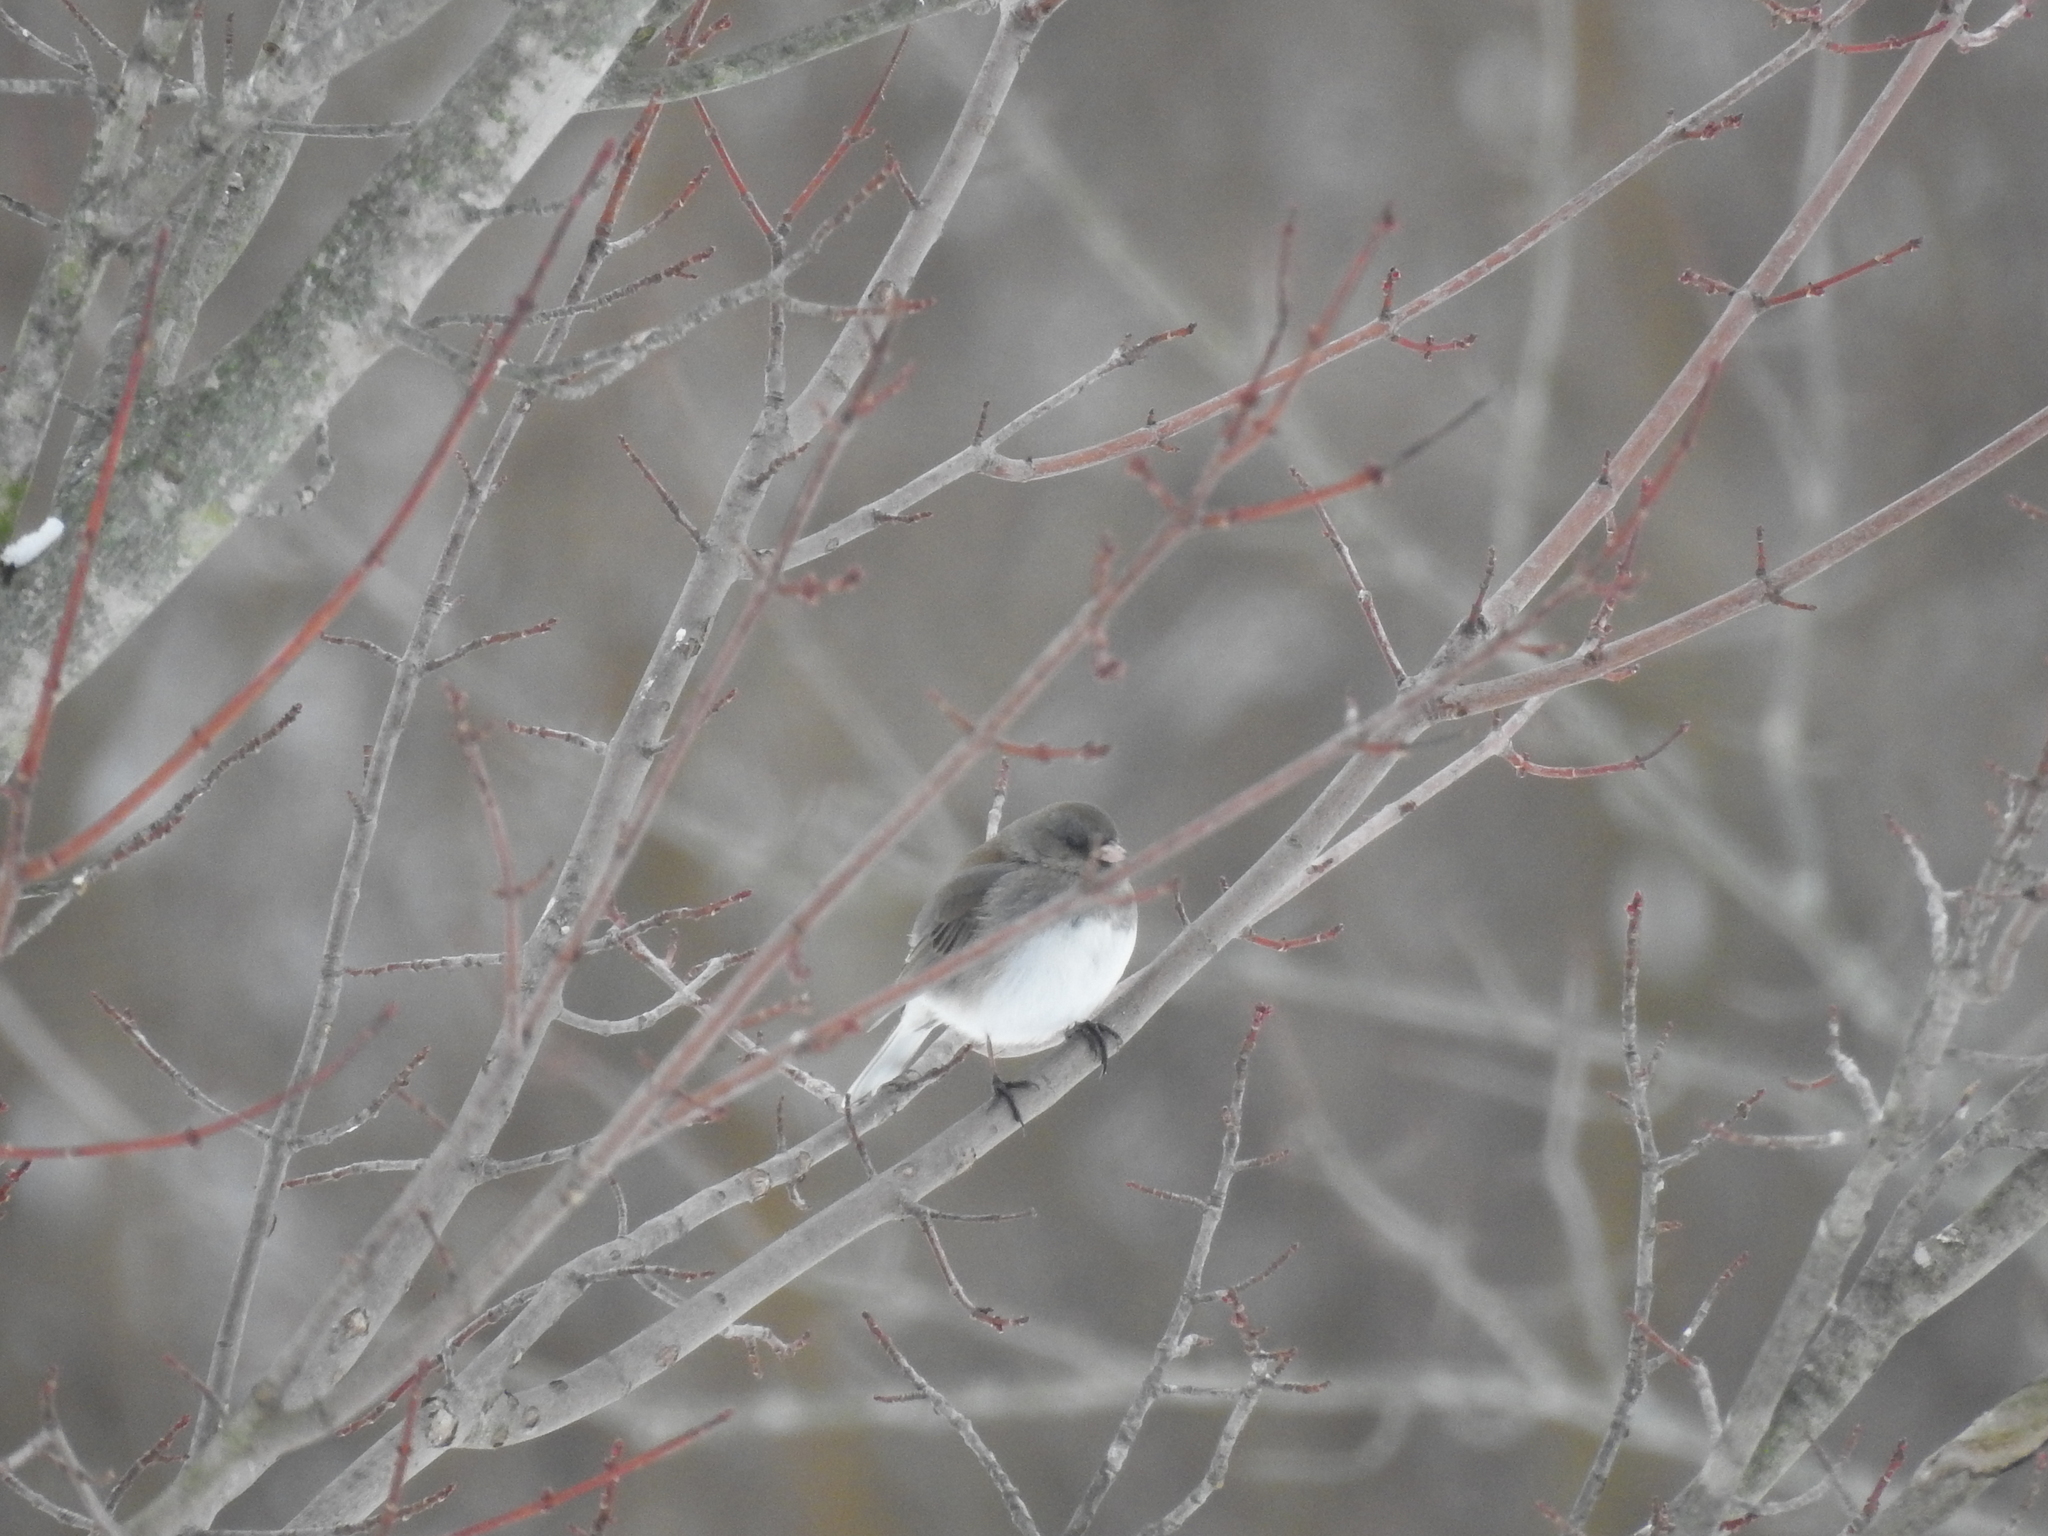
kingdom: Animalia
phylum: Chordata
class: Aves
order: Passeriformes
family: Passerellidae
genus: Junco
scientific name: Junco hyemalis
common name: Dark-eyed junco
